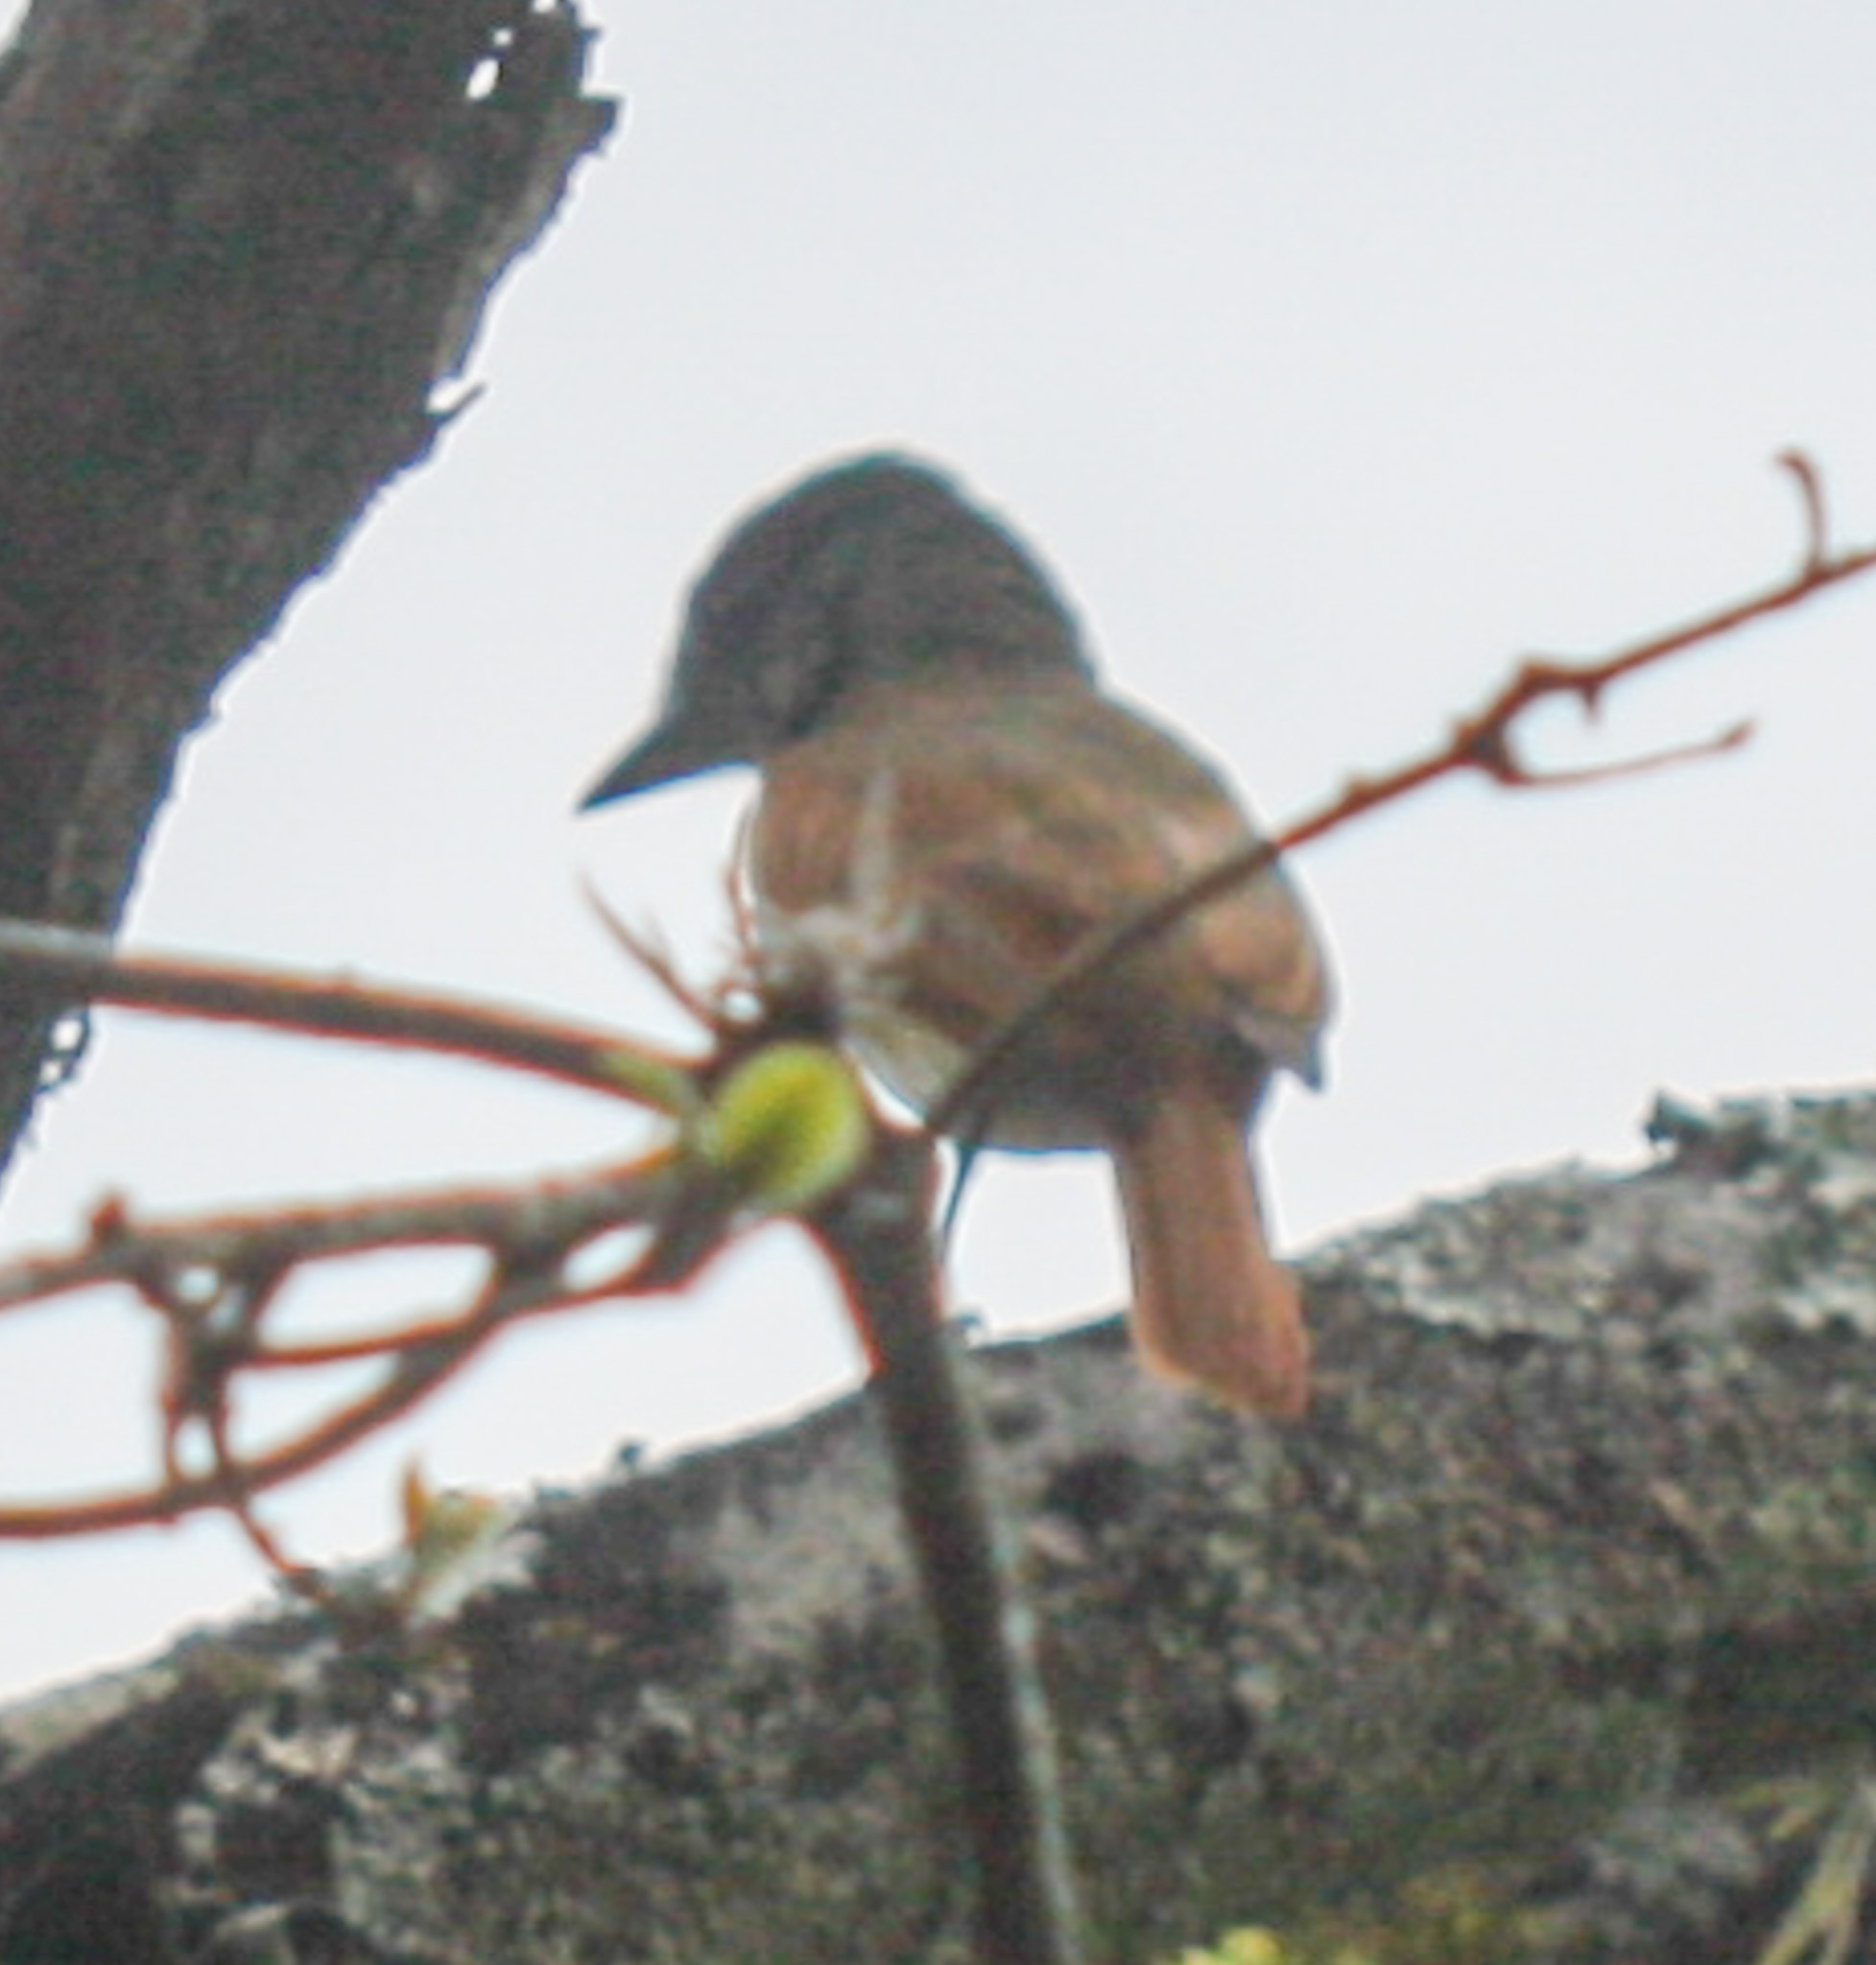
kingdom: Animalia
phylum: Chordata
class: Aves
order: Passeriformes
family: Cotingidae
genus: Pachyramphus
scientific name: Pachyramphus aglaiae
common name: Rose-throated becard
